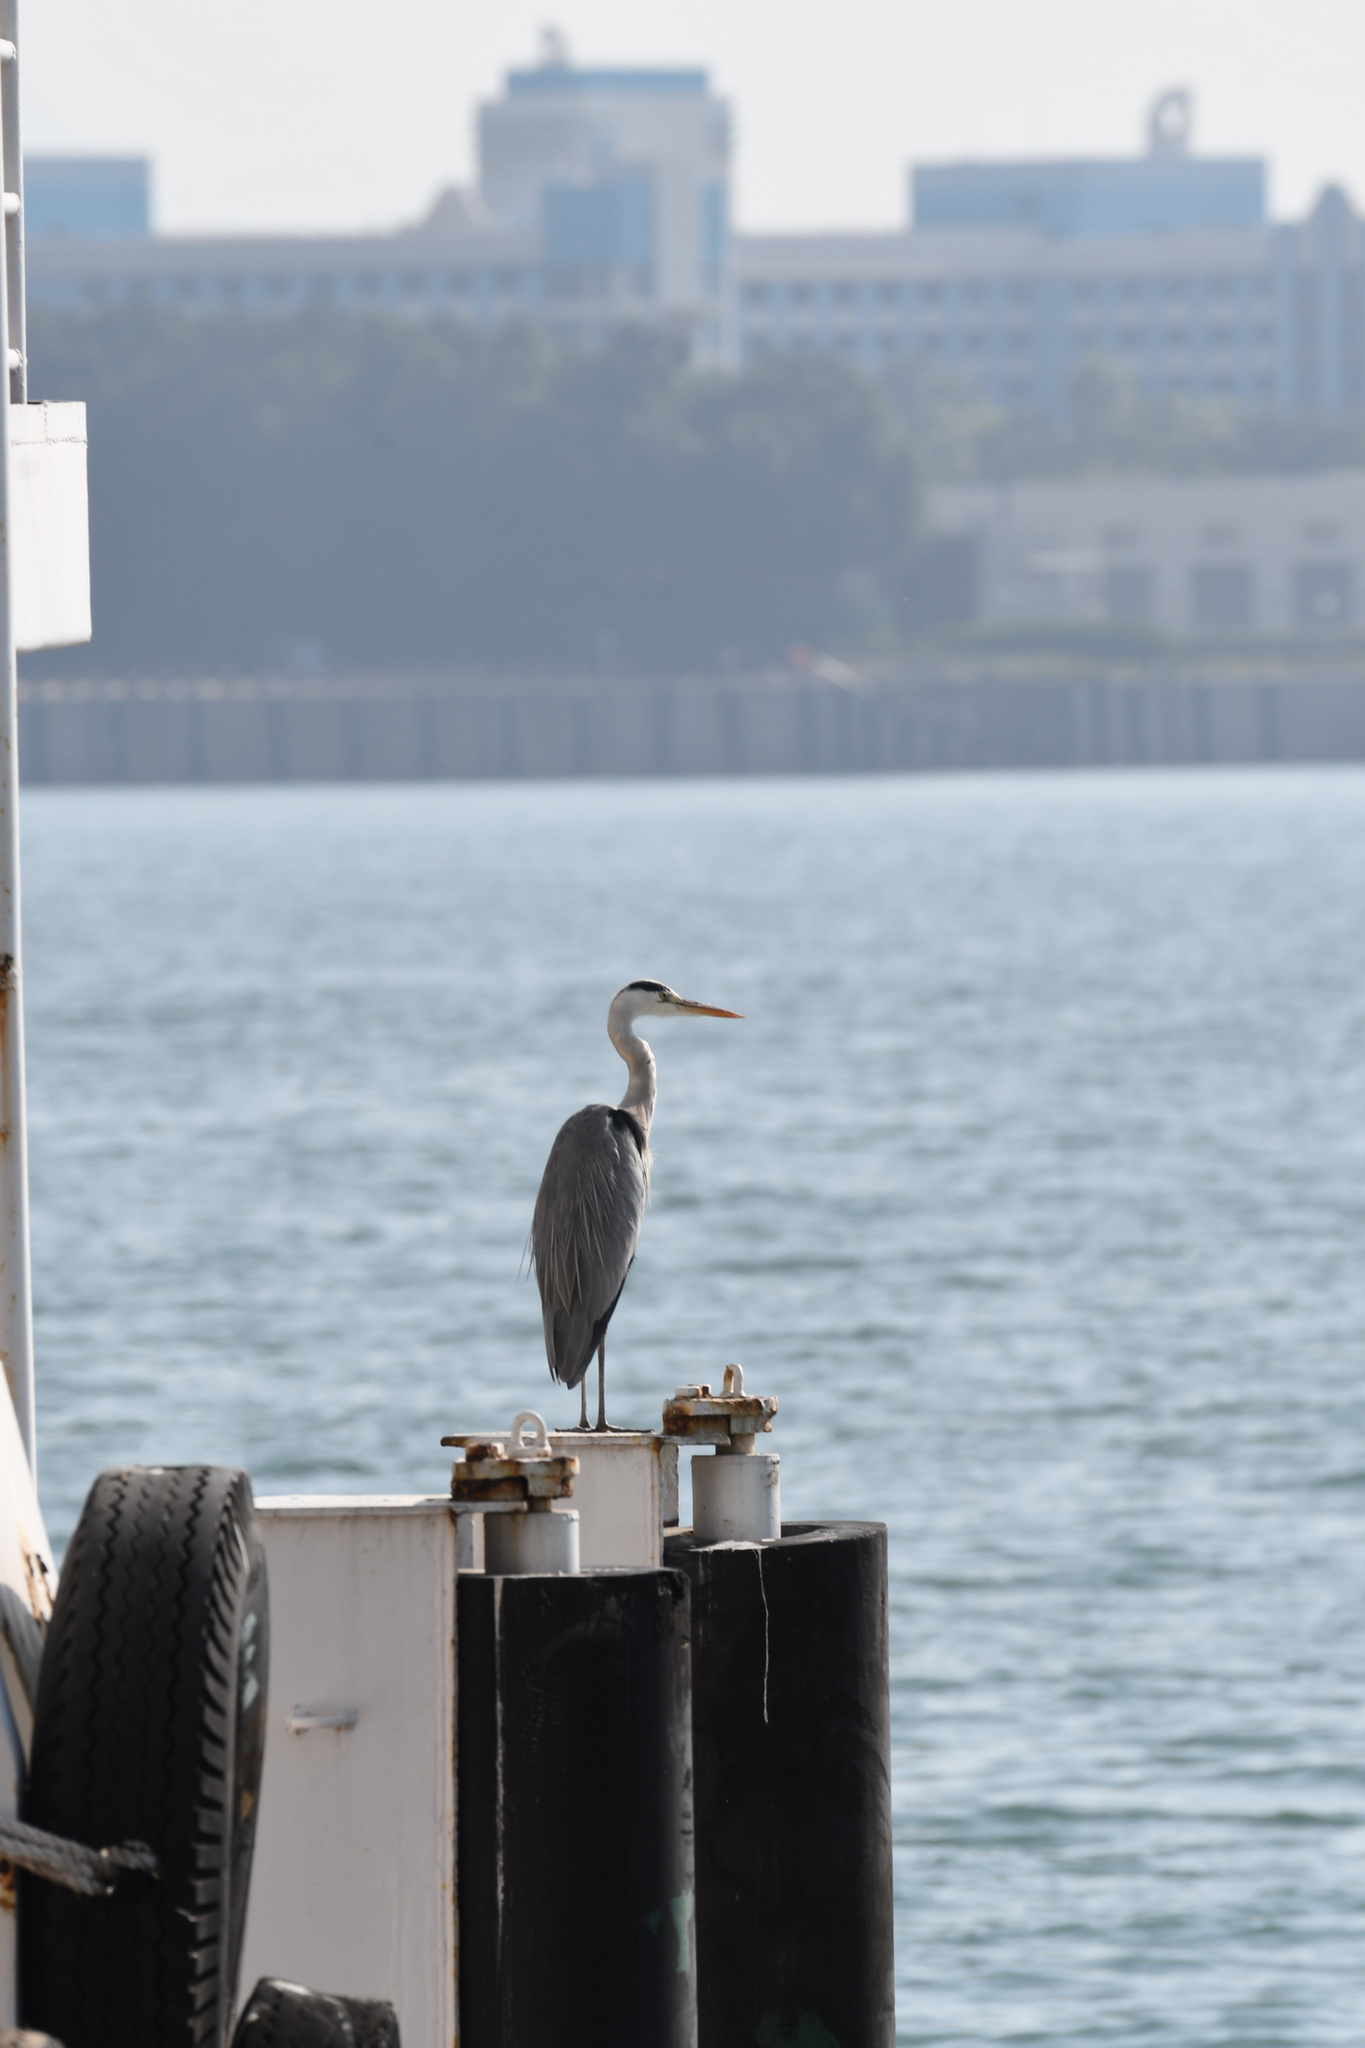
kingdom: Animalia
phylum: Chordata
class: Aves
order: Pelecaniformes
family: Ardeidae
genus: Ardea
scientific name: Ardea cinerea
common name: Grey heron
